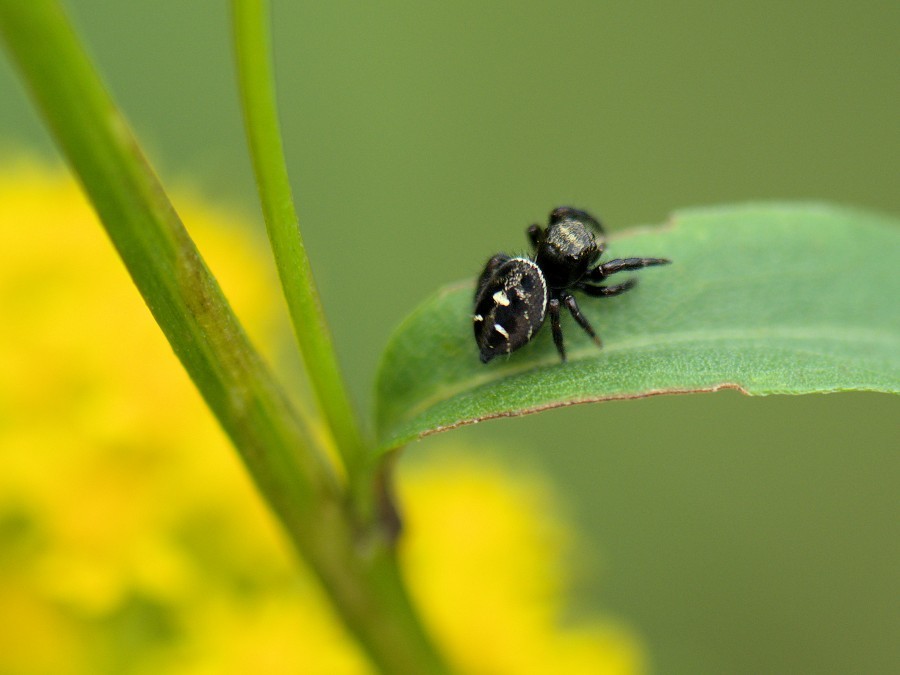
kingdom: Animalia
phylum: Arthropoda
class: Arachnida
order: Araneae
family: Salticidae
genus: Phidippus
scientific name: Phidippus audax
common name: Bold jumper
